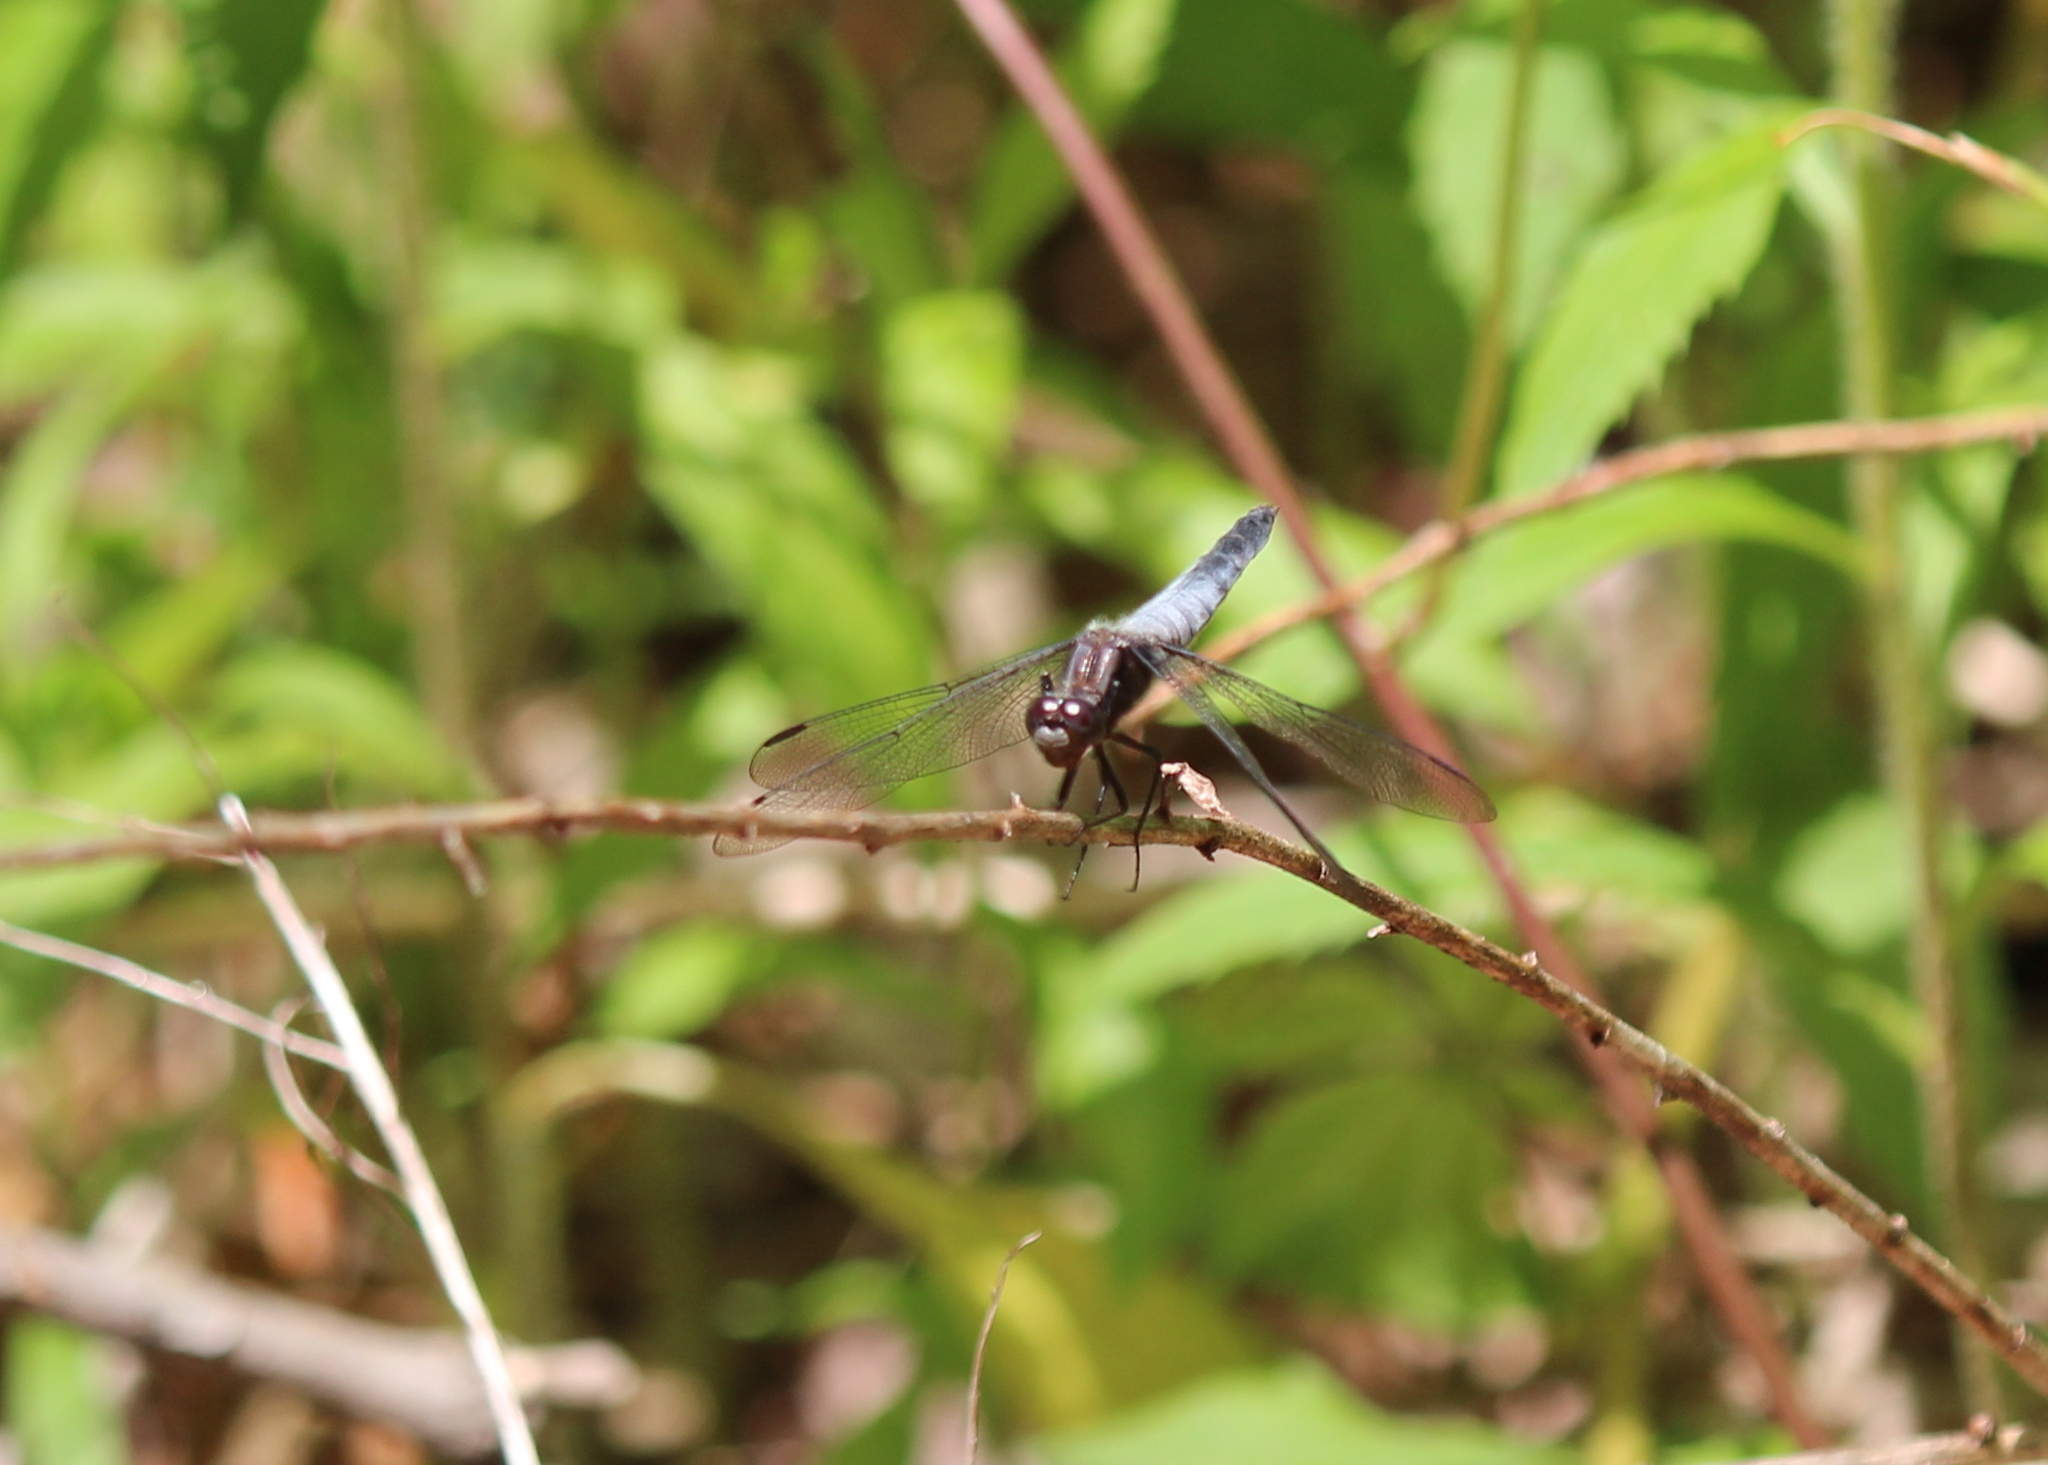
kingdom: Animalia
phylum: Arthropoda
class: Insecta
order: Odonata
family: Libellulidae
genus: Ladona
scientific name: Ladona exusta
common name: Libellule embrasée
